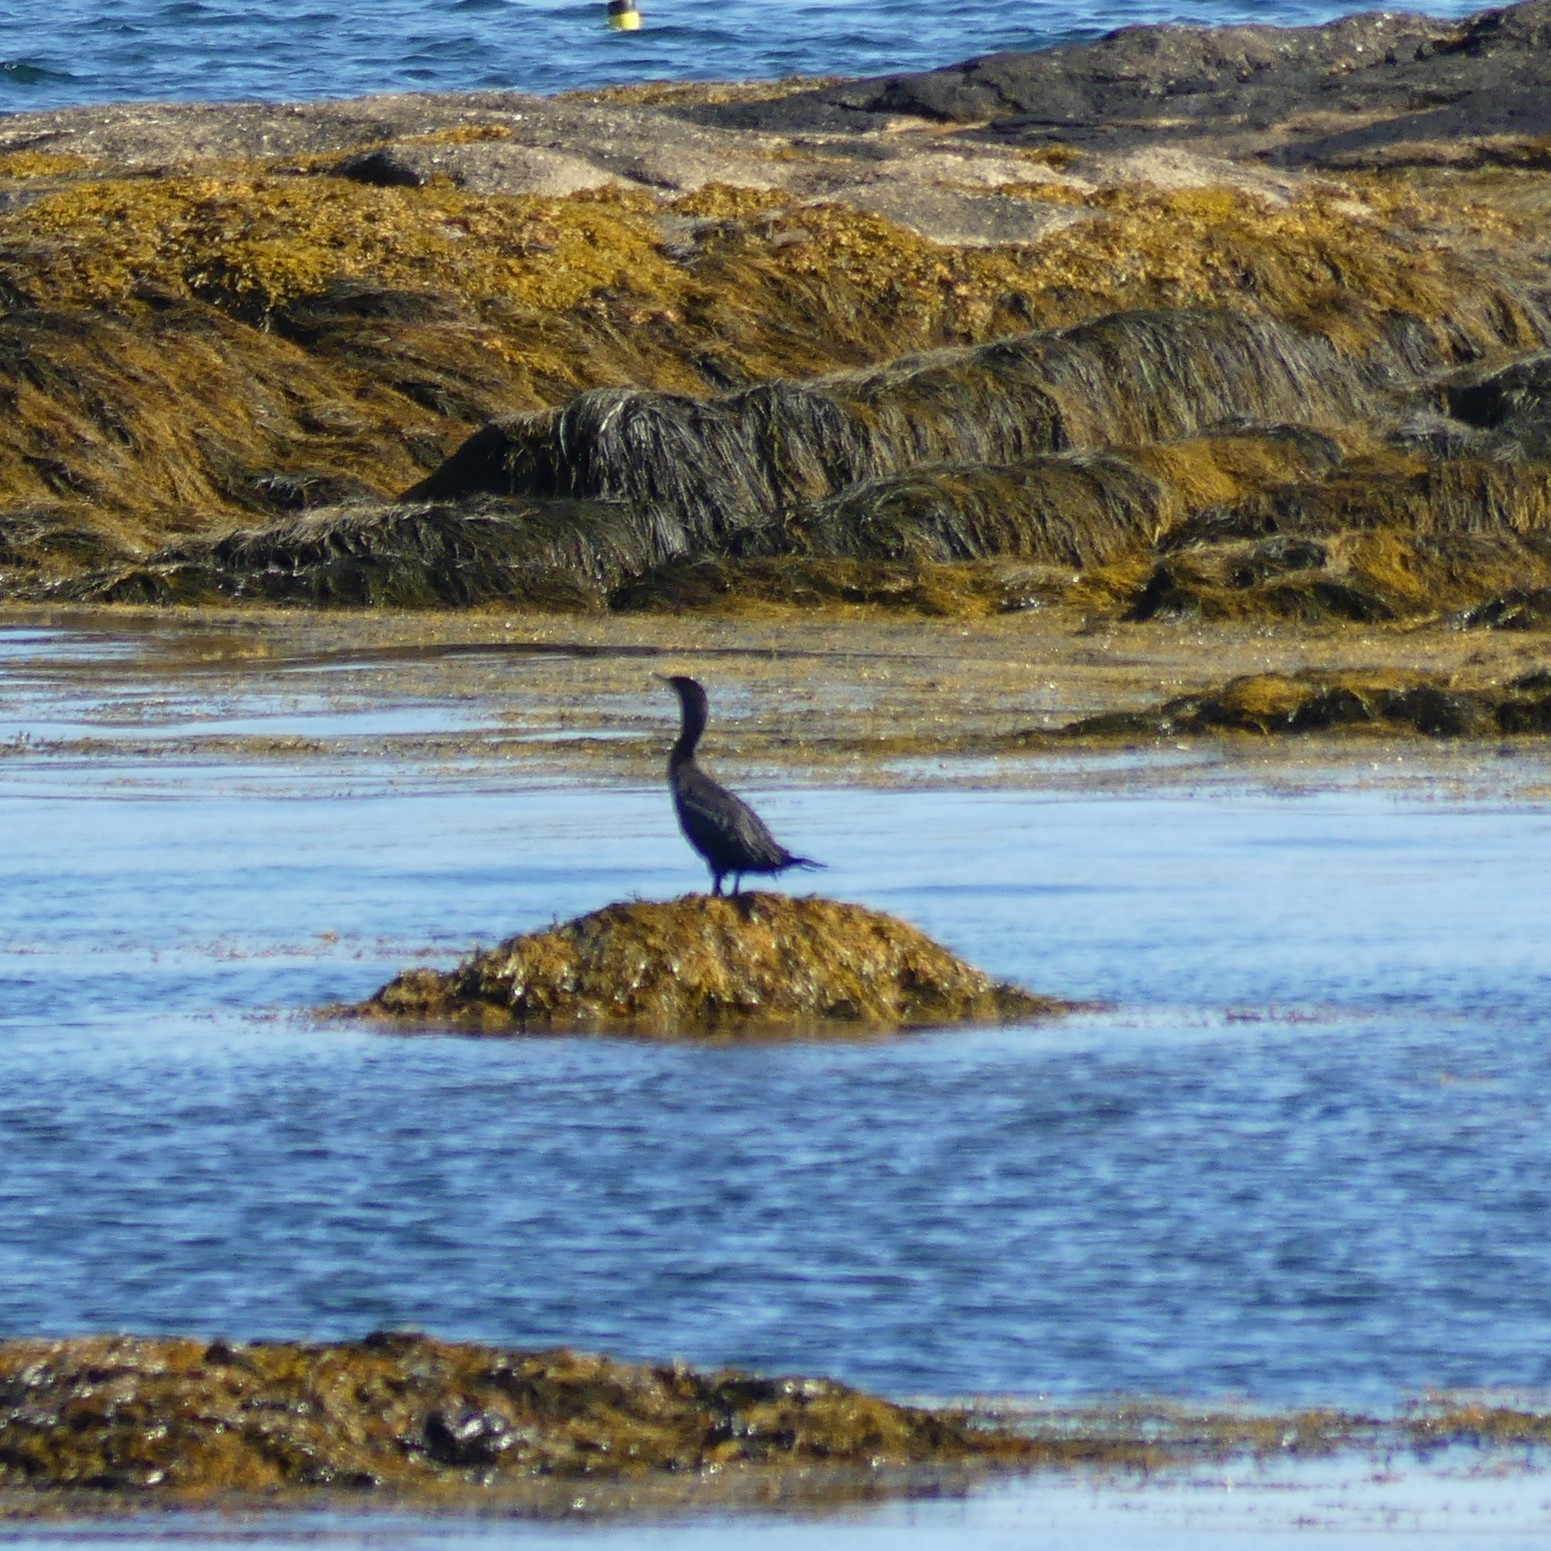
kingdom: Animalia
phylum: Chordata
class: Aves
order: Suliformes
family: Phalacrocoracidae
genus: Phalacrocorax
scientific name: Phalacrocorax auritus
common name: Double-crested cormorant
